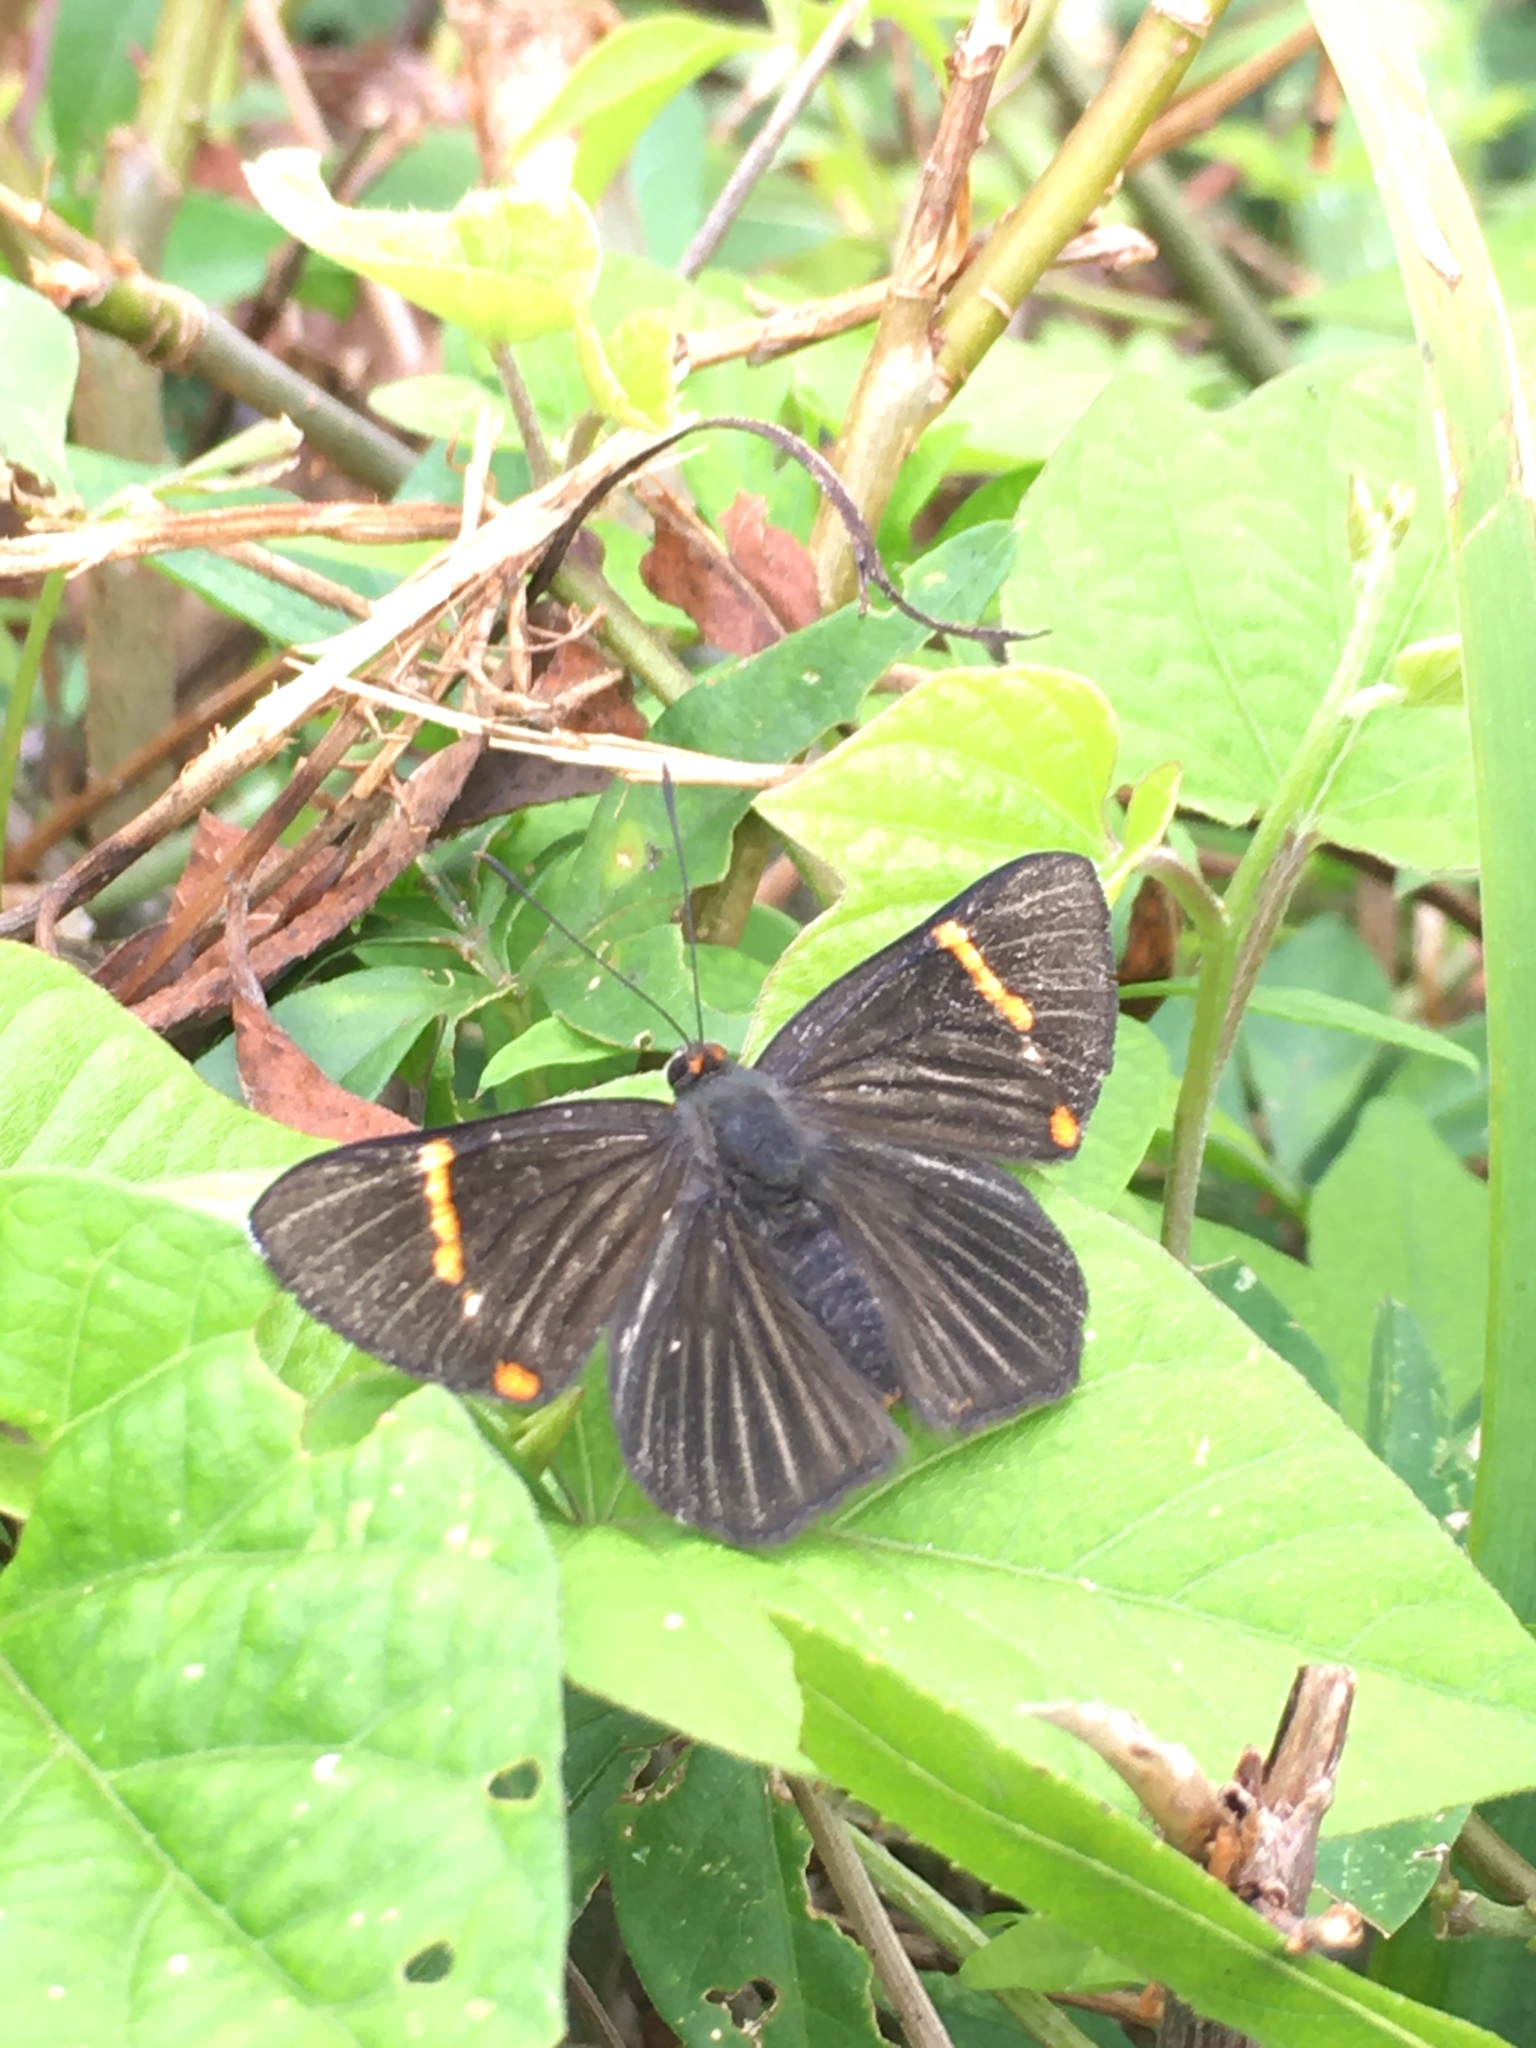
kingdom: Animalia
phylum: Arthropoda
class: Insecta
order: Lepidoptera
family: Riodinidae
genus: Riodina
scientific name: Riodina lycisca
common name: Lycisca metalmark
